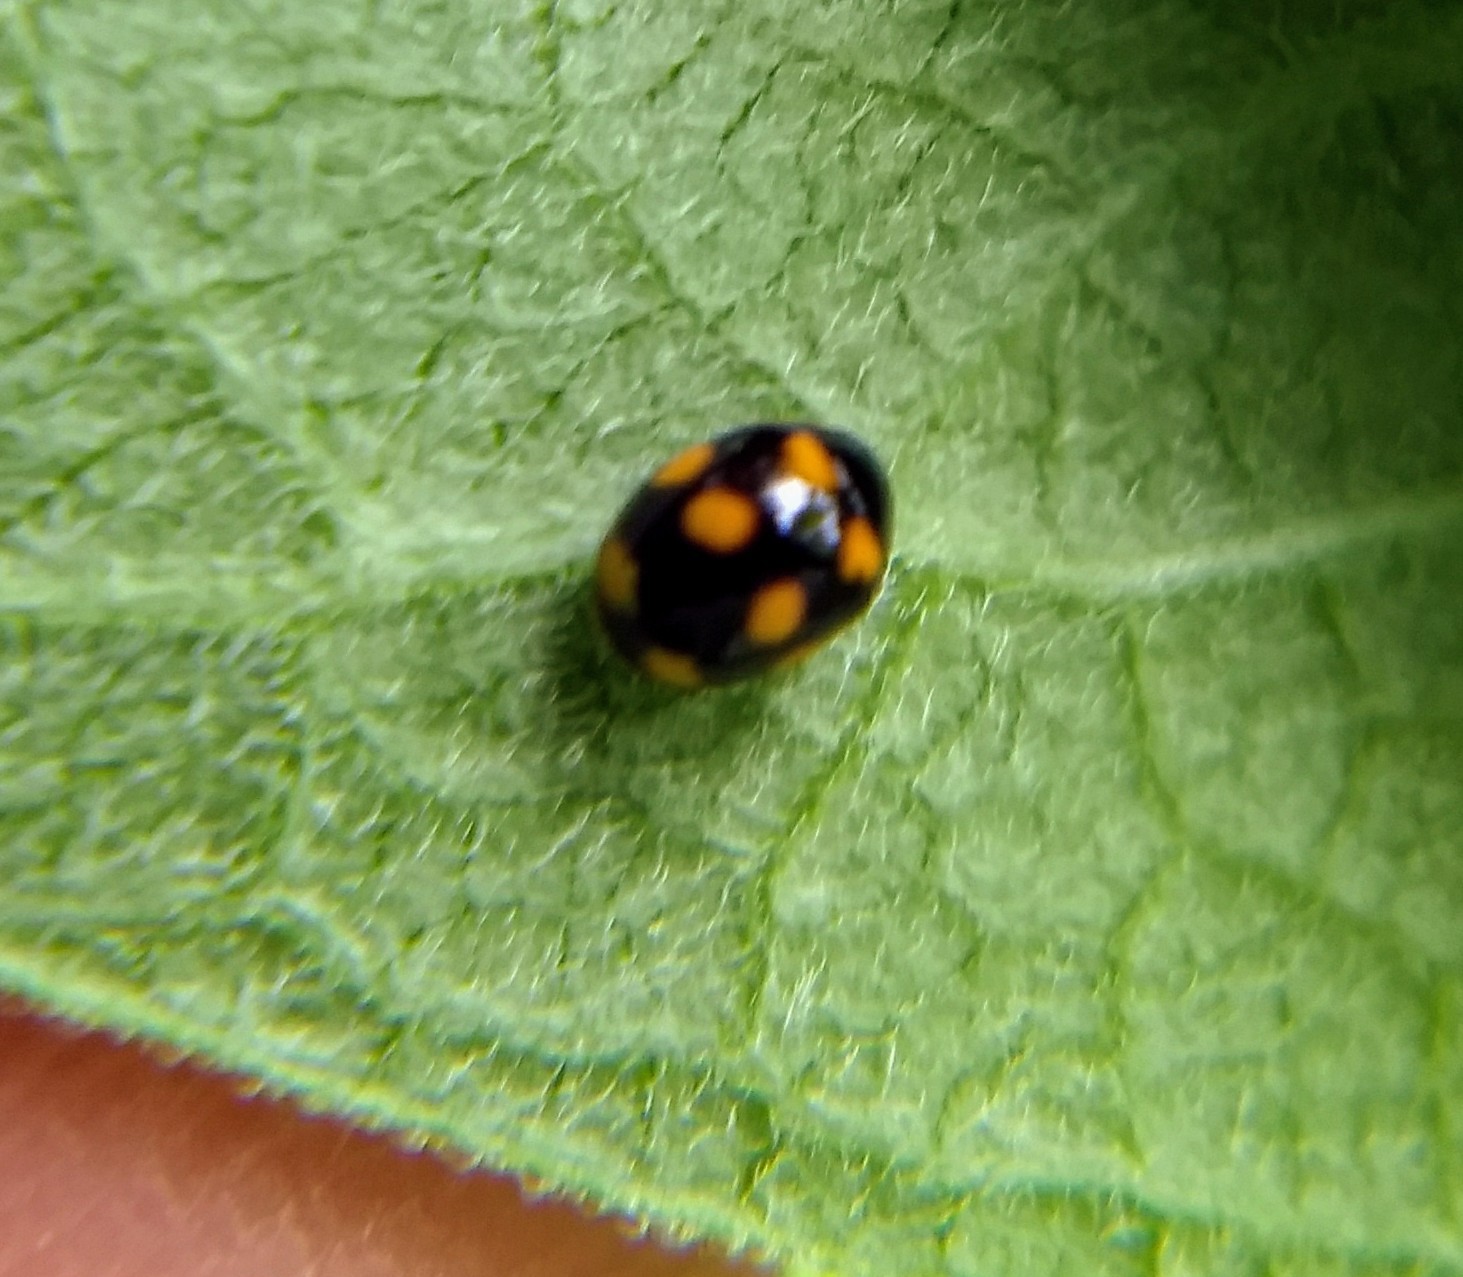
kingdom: Animalia
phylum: Arthropoda
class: Insecta
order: Coleoptera
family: Coccinellidae
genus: Brachiacantha
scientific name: Brachiacantha ursina
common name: Ursine spurleg lady beetle
